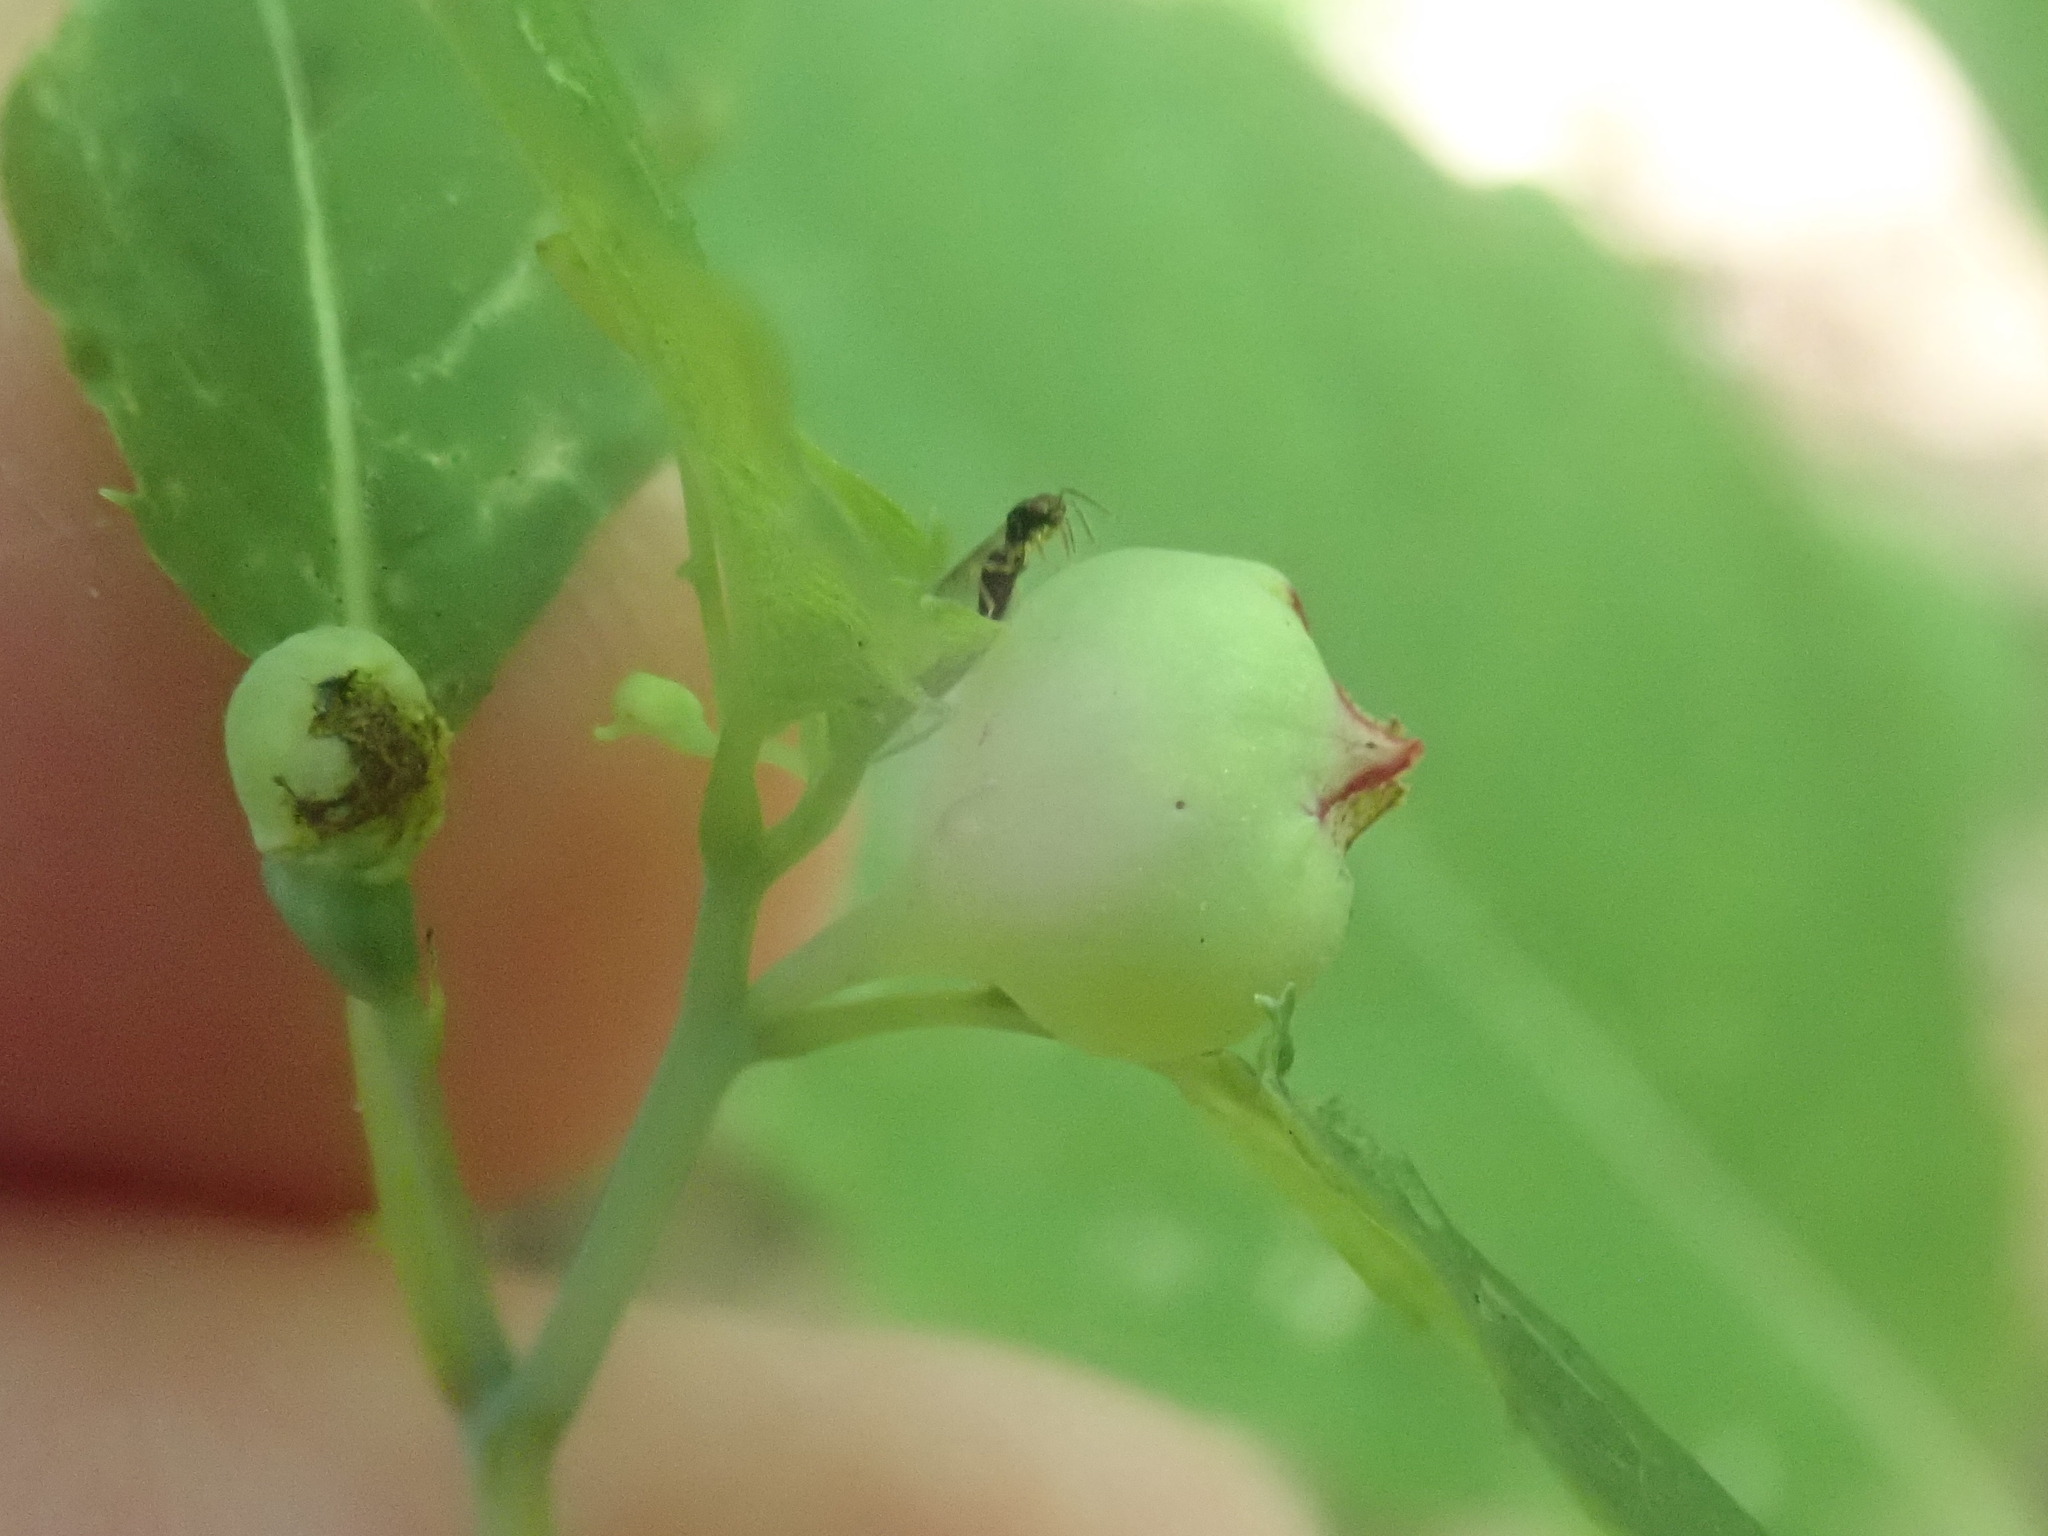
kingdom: Animalia
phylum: Arthropoda
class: Insecta
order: Diptera
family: Cecidomyiidae
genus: Schizomyia
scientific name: Schizomyia impatientis
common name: Jewelweed gall midge
